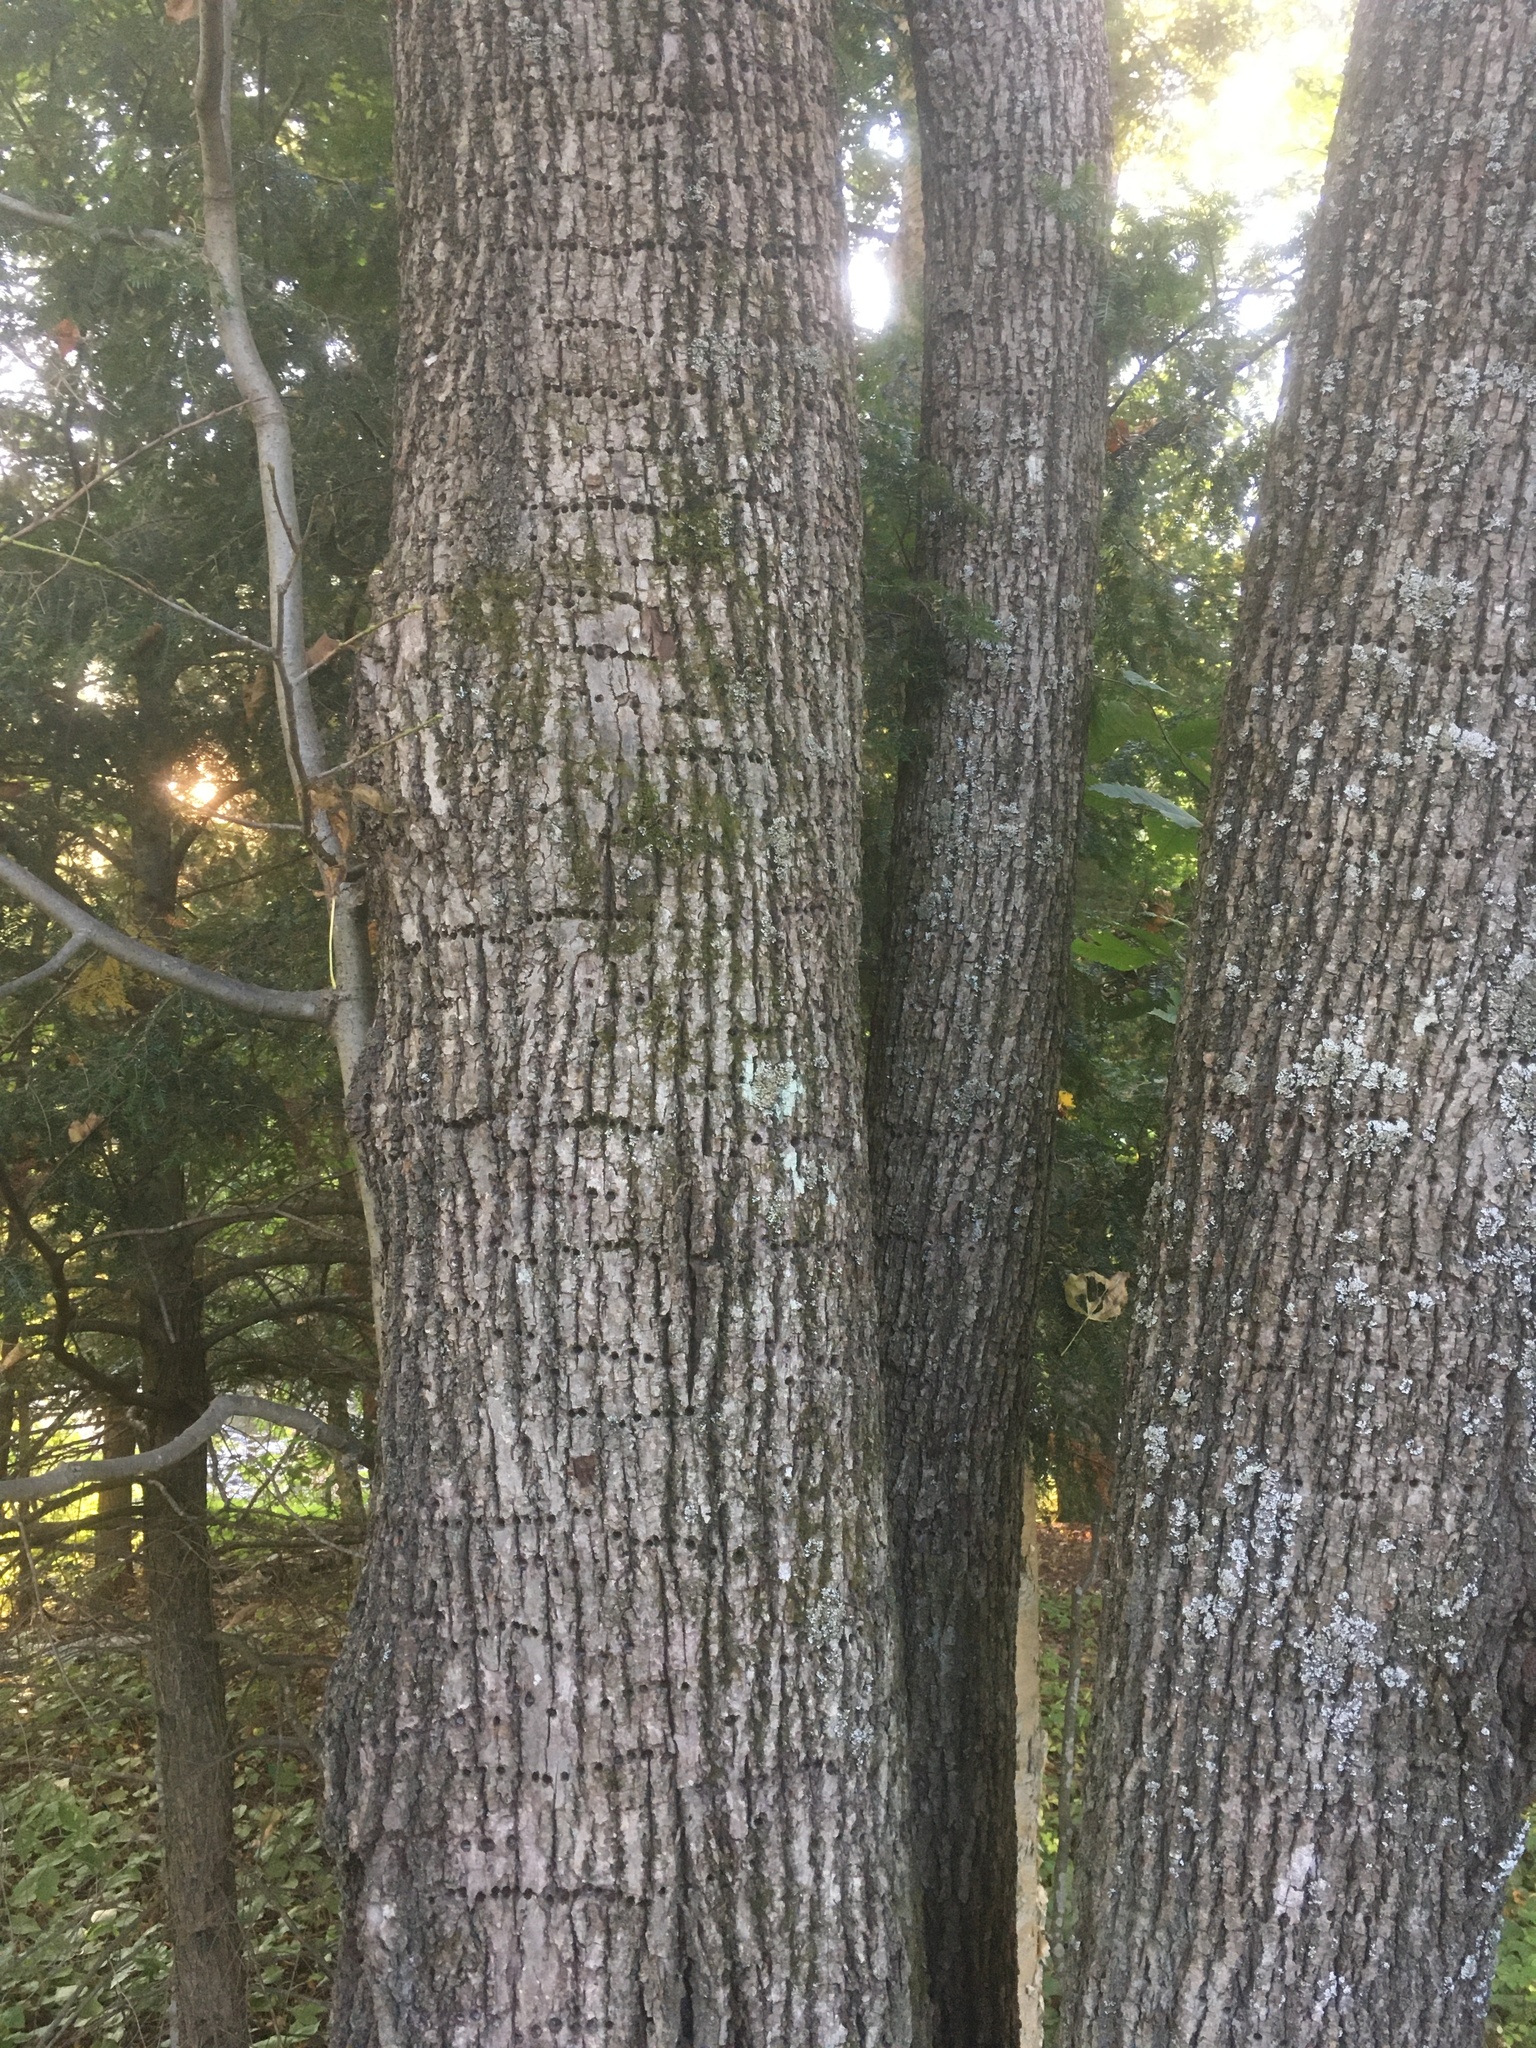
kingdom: Animalia
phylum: Chordata
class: Aves
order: Piciformes
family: Picidae
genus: Sphyrapicus
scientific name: Sphyrapicus varius
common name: Yellow-bellied sapsucker
